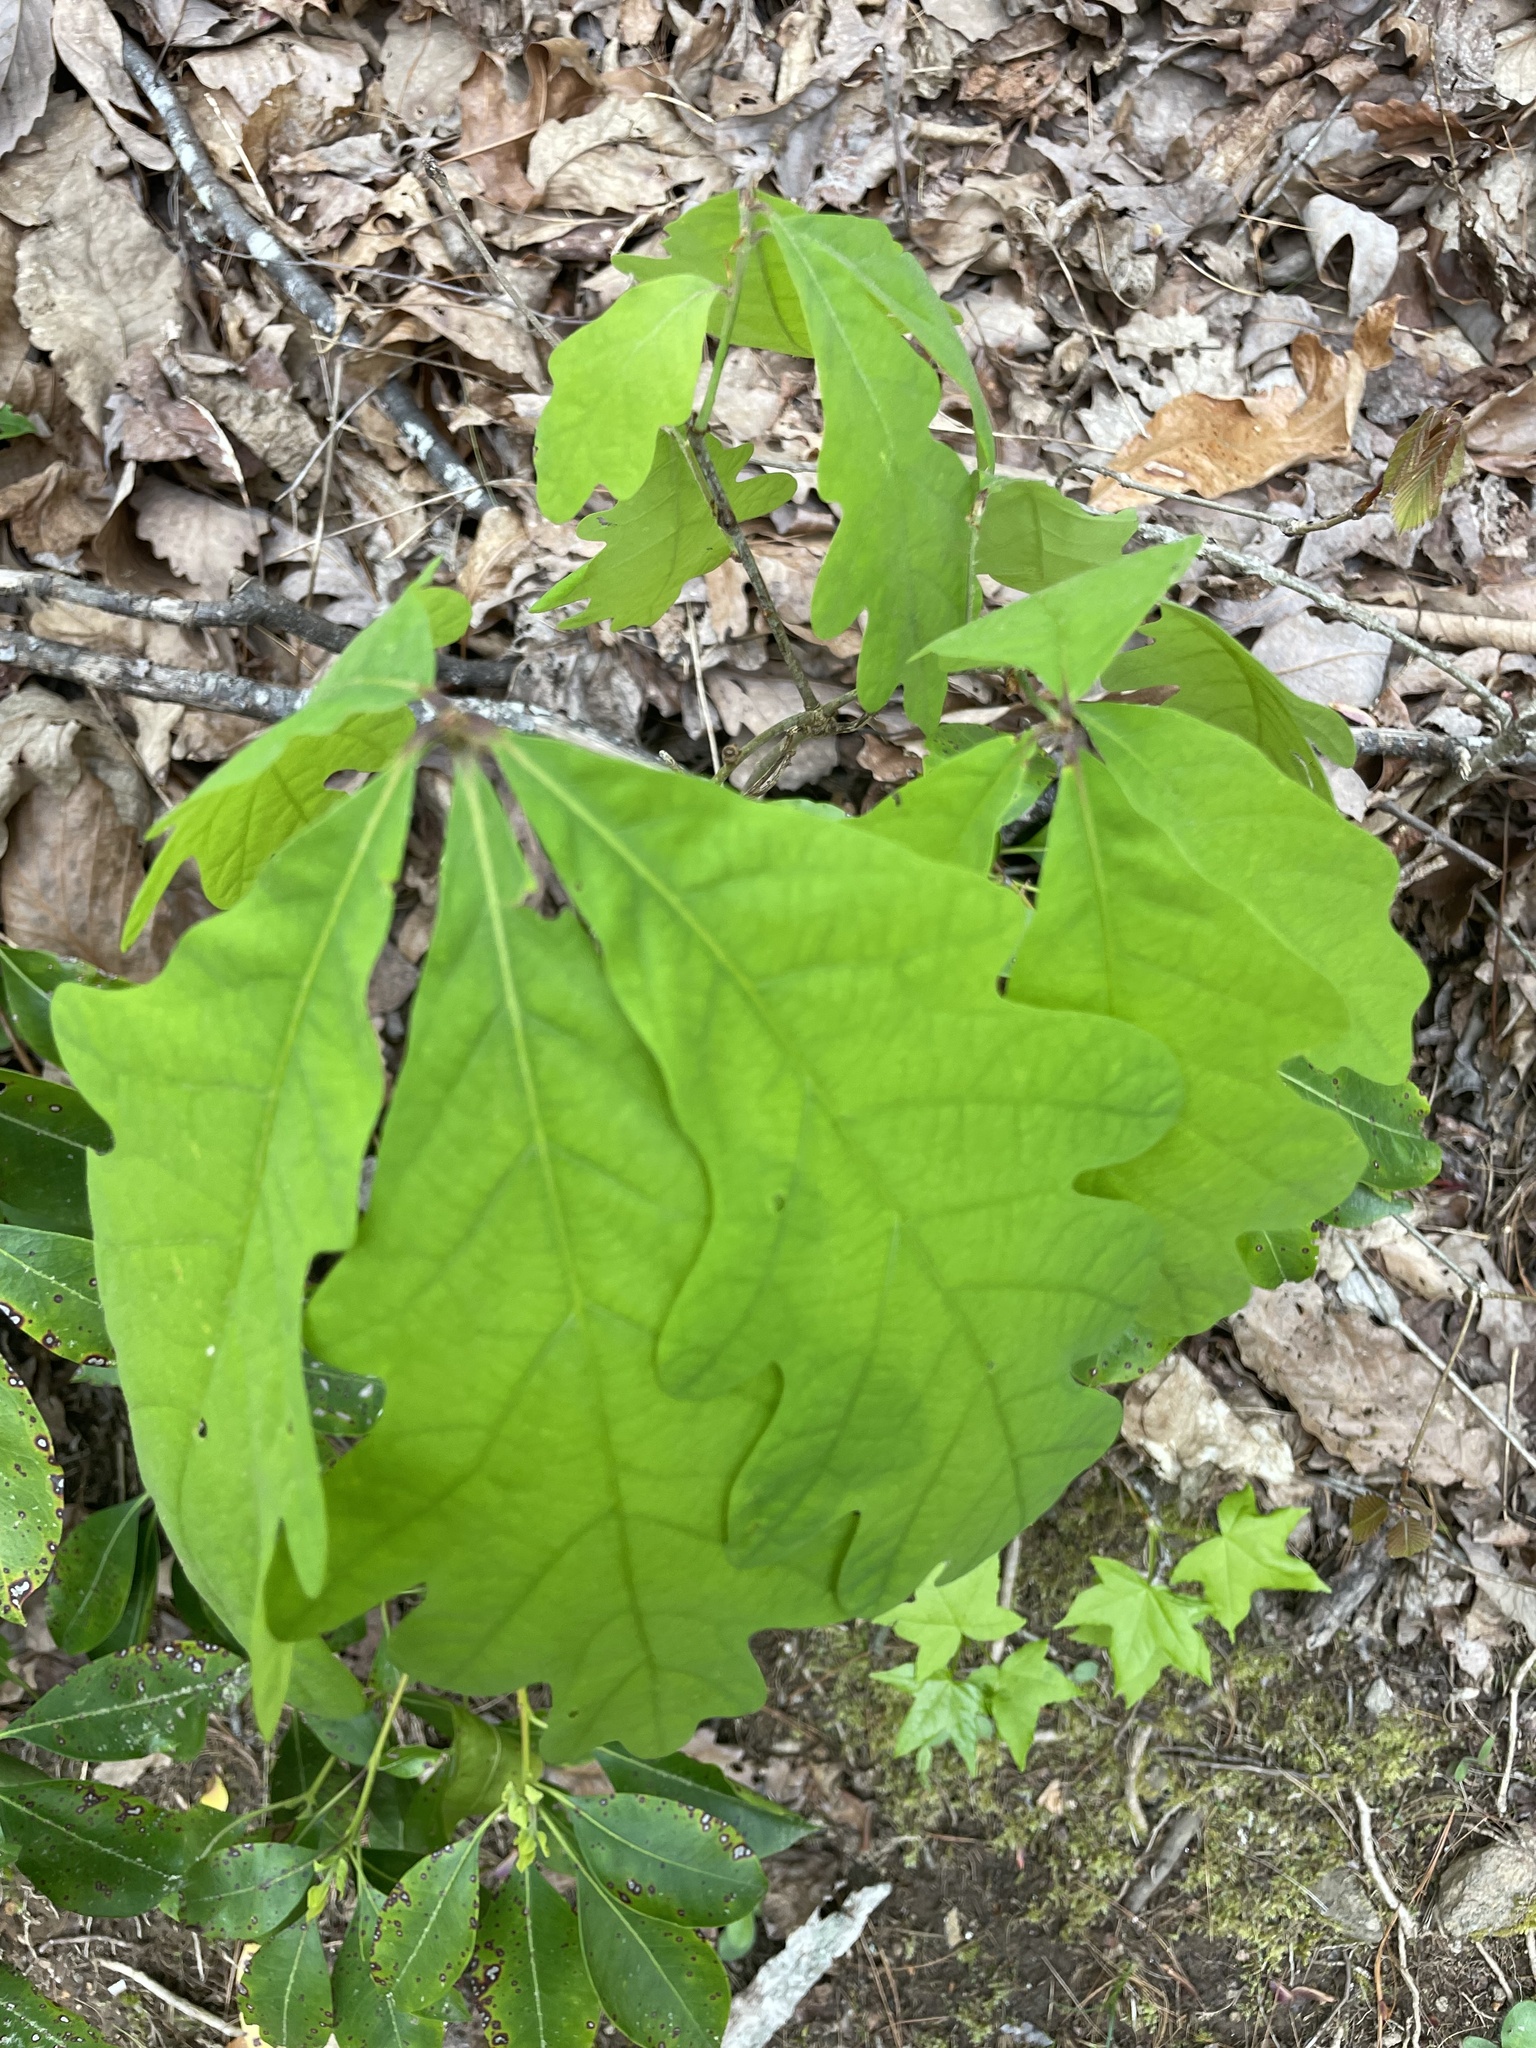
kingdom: Plantae
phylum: Tracheophyta
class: Magnoliopsida
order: Fagales
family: Fagaceae
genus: Quercus
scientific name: Quercus alba
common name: White oak
